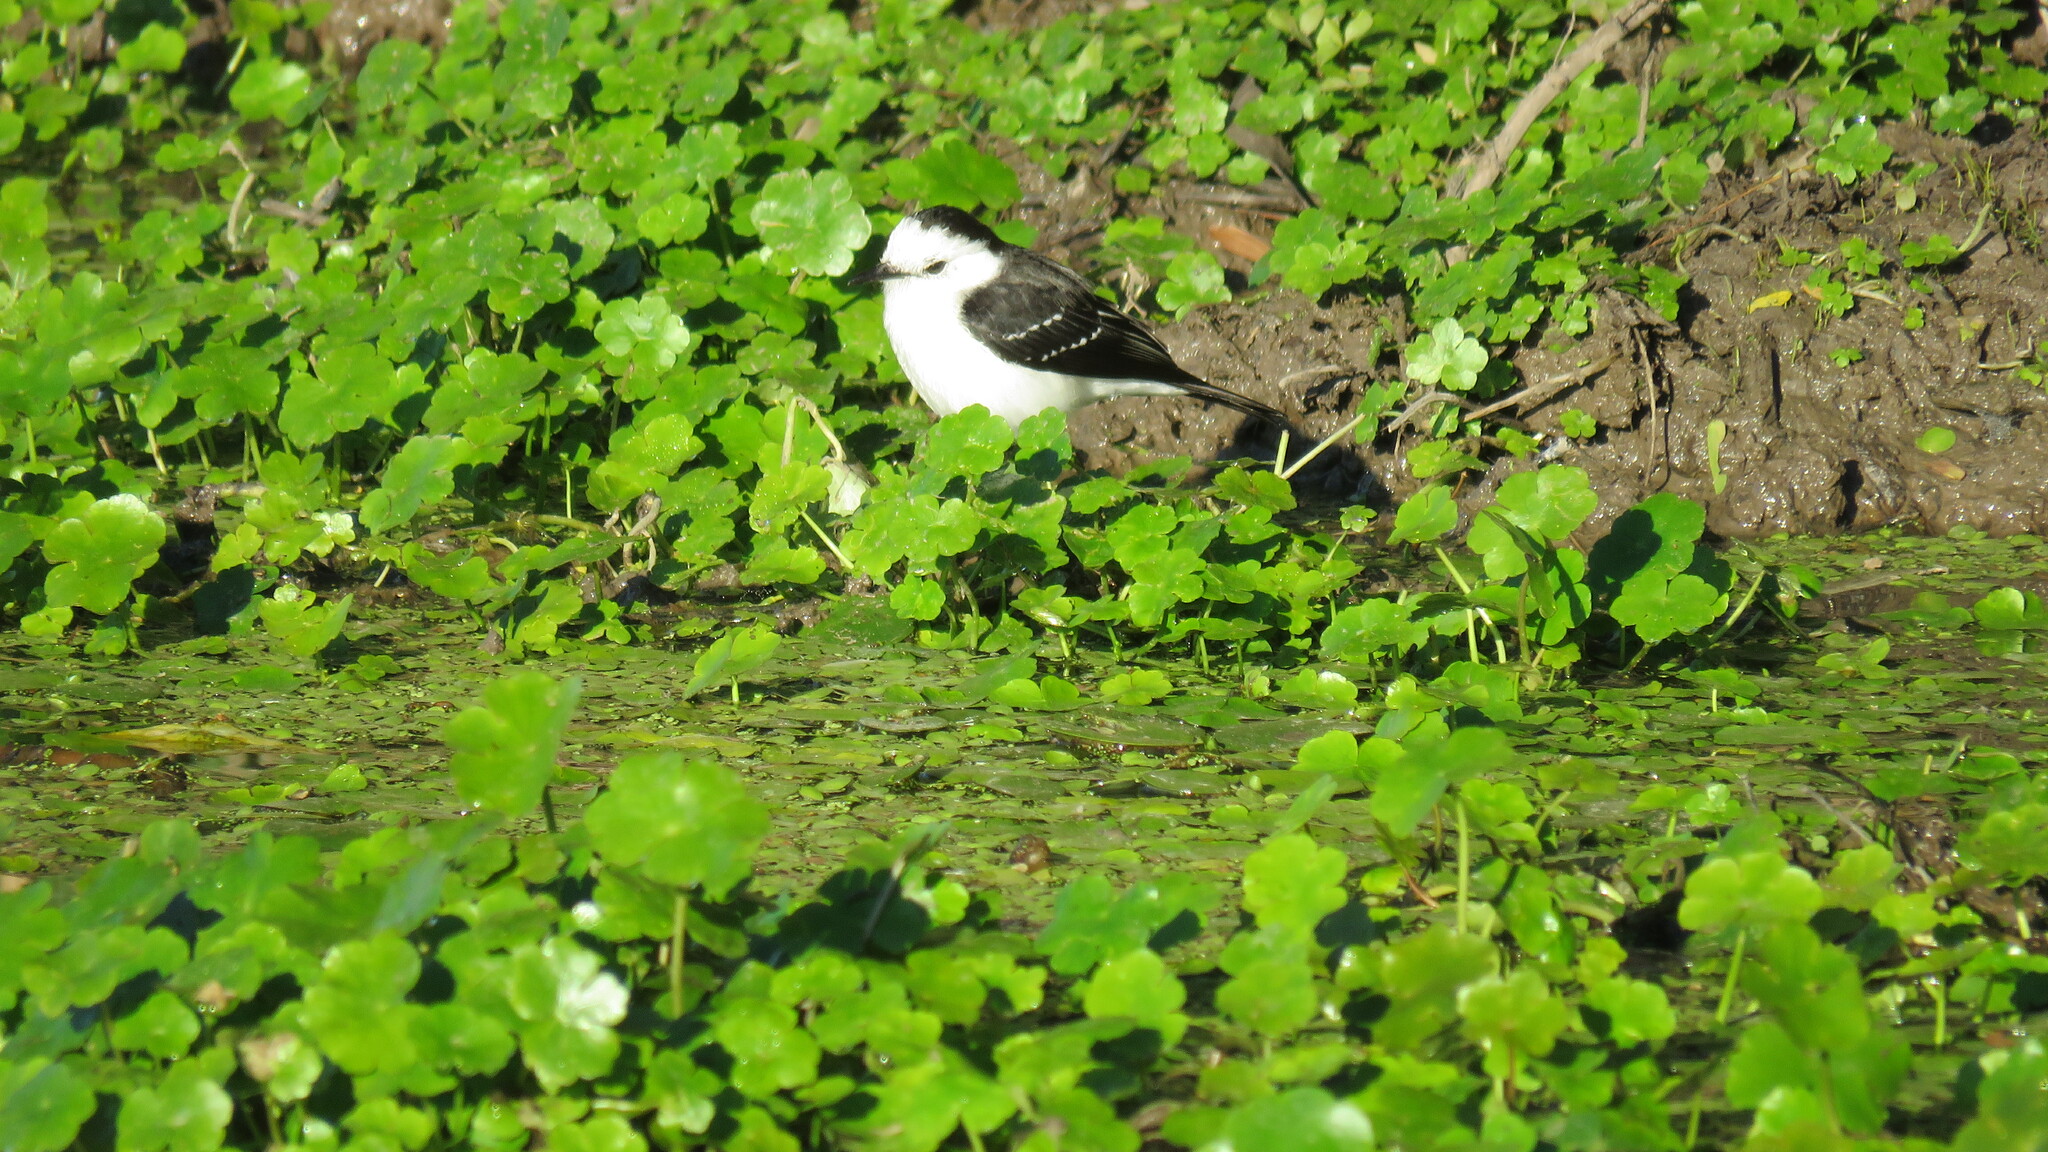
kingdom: Animalia
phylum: Chordata
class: Aves
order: Passeriformes
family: Tyrannidae
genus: Fluvicola
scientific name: Fluvicola pica
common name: Pied water-tyrant
